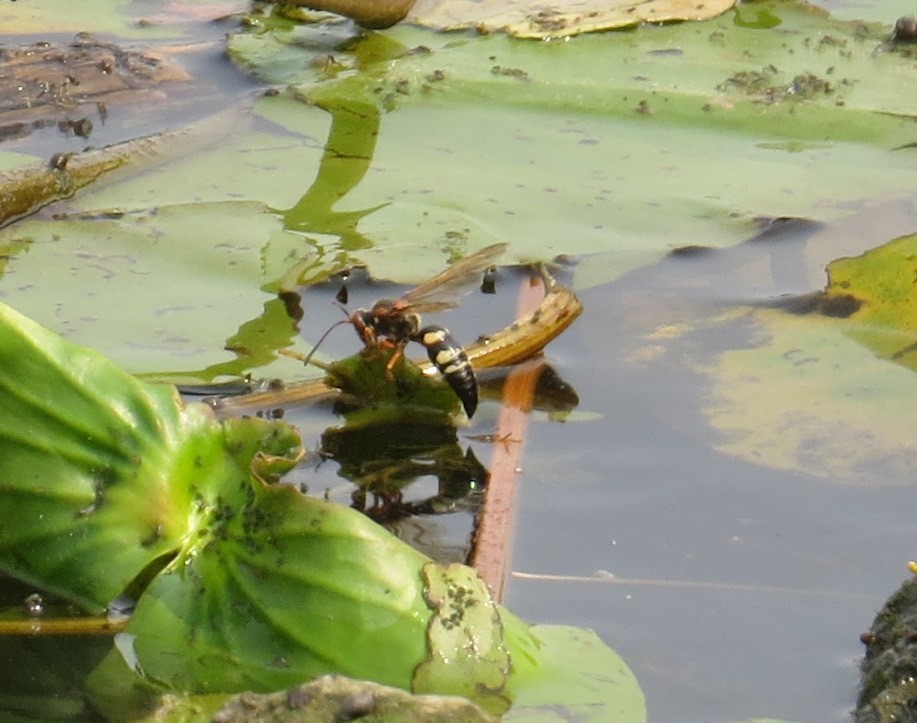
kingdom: Animalia
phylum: Arthropoda
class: Insecta
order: Hymenoptera
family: Crabronidae
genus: Sphecius
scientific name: Sphecius speciosus
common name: Cicada killer
